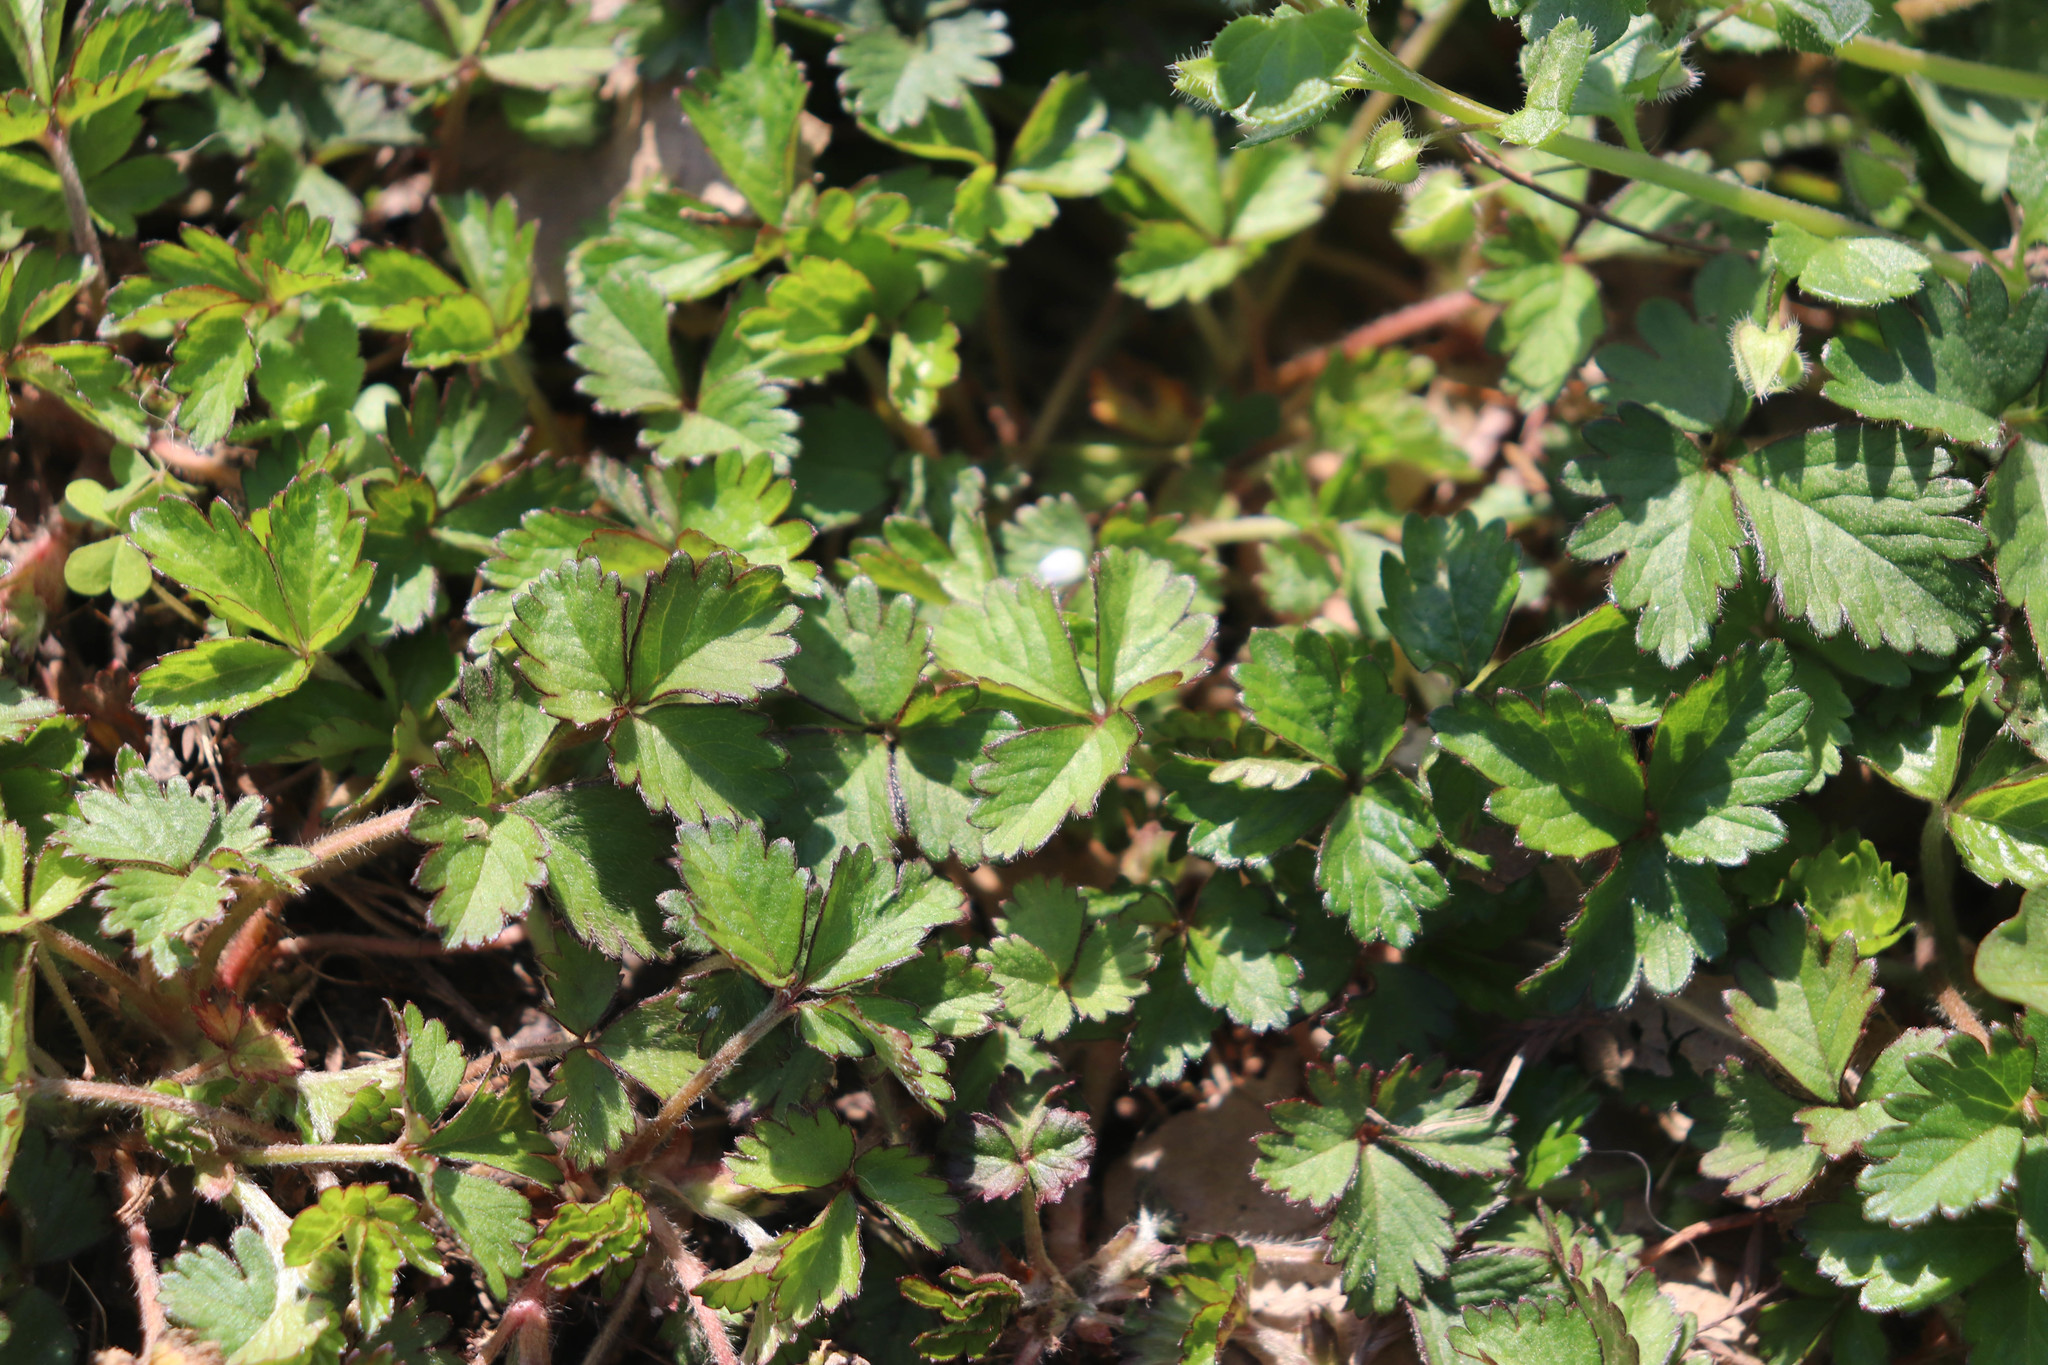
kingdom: Plantae
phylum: Tracheophyta
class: Magnoliopsida
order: Rosales
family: Rosaceae
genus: Potentilla
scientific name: Potentilla indica
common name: Yellow-flowered strawberry
